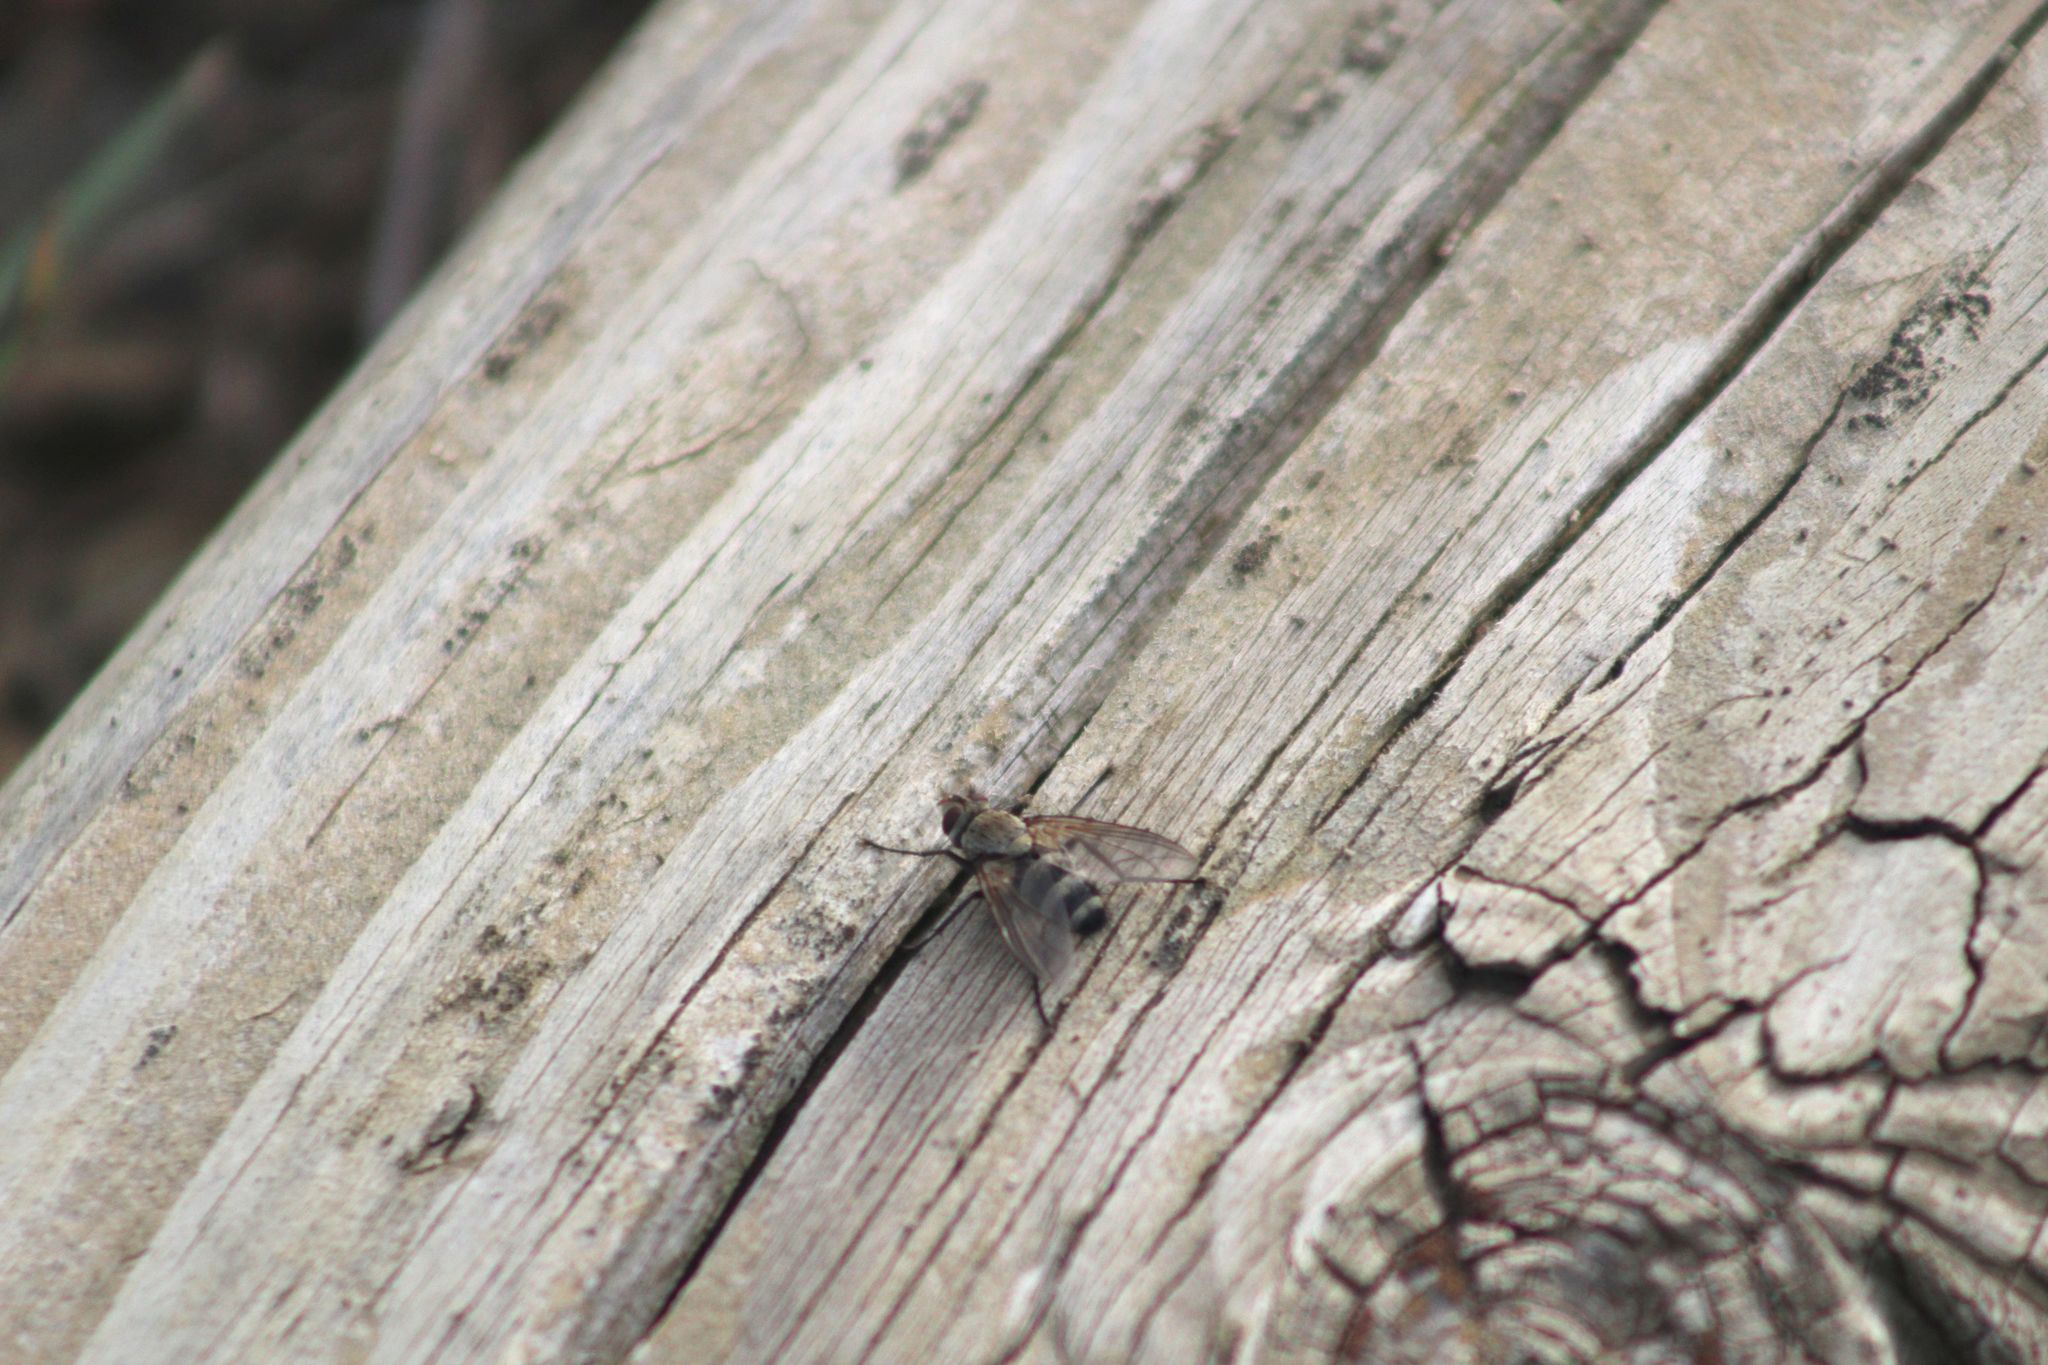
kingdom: Animalia
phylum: Arthropoda
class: Insecta
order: Diptera
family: Tachinidae
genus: Microphthalma
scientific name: Microphthalma disjuncta
